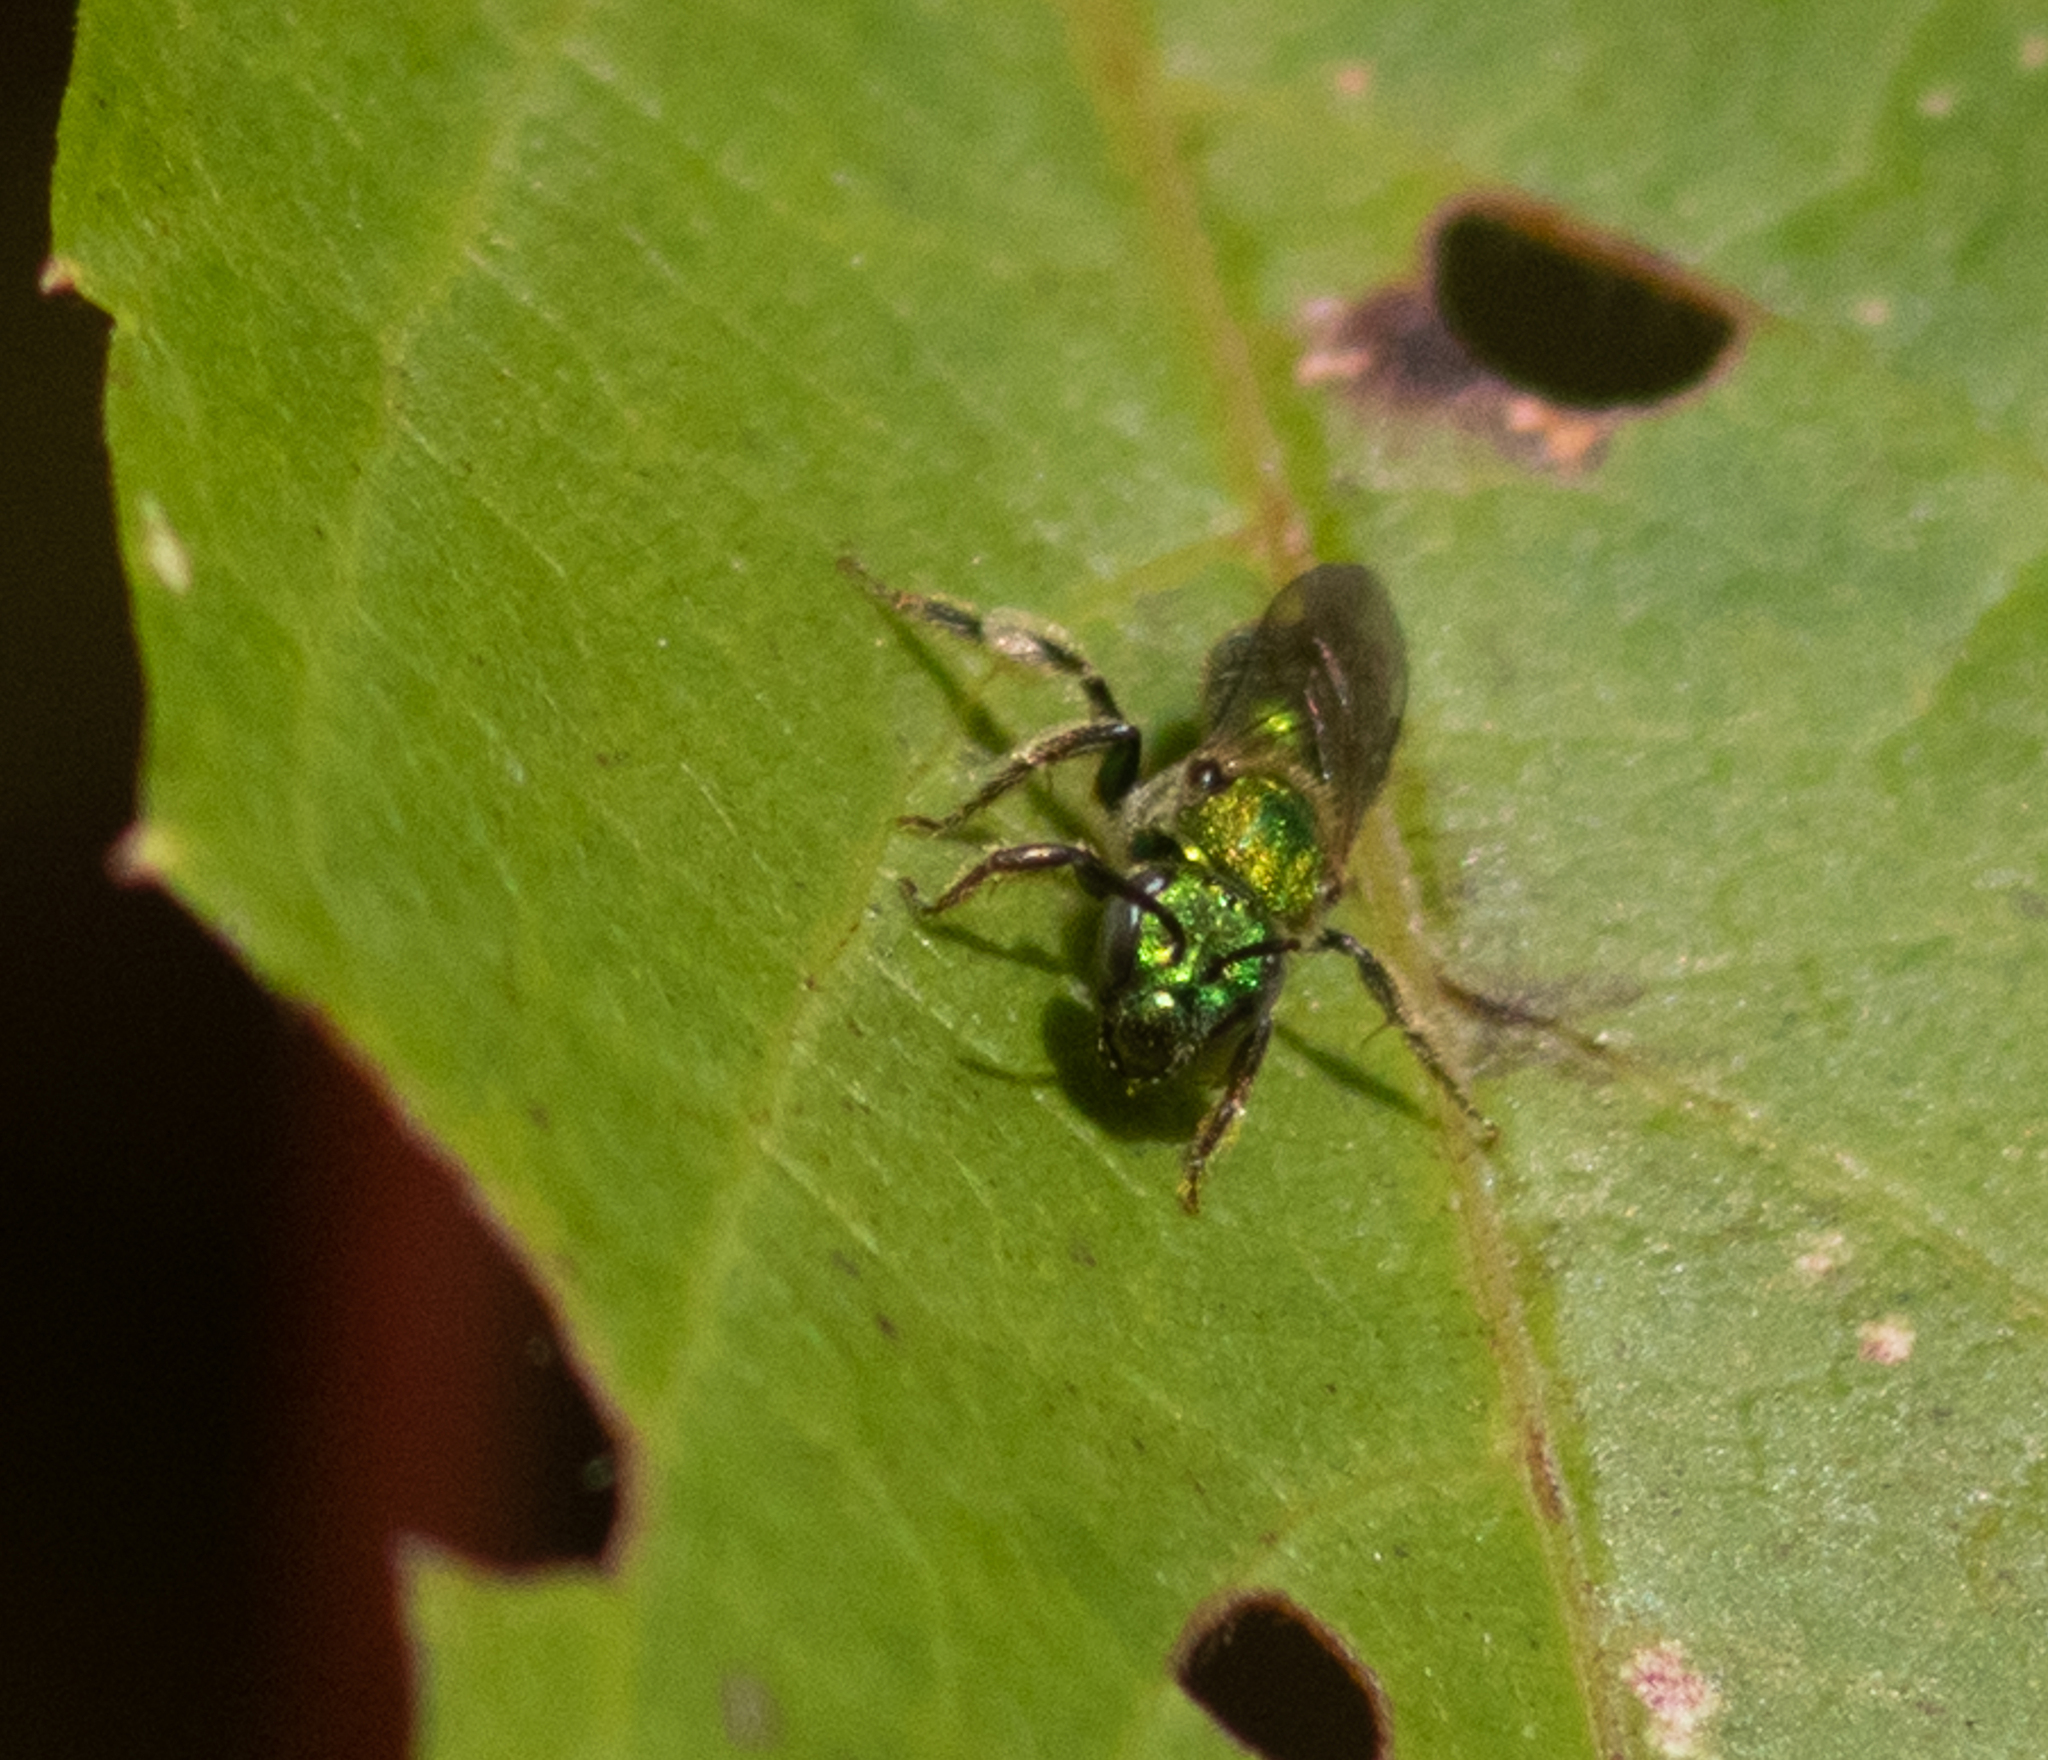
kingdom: Animalia
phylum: Arthropoda
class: Insecta
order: Hymenoptera
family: Halictidae
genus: Augochlorella
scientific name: Augochlorella aurata
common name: Golden sweat bee
